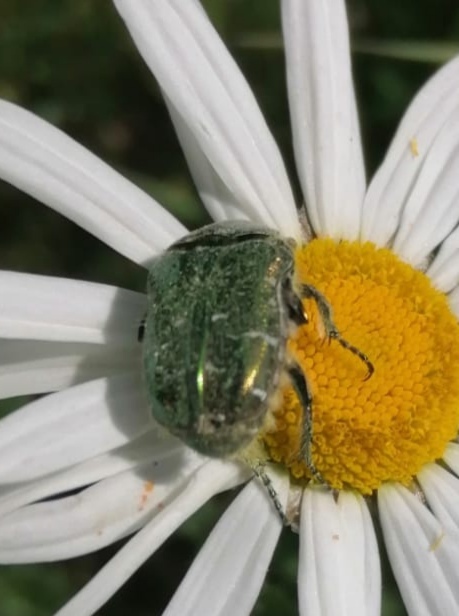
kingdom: Animalia
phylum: Arthropoda
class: Insecta
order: Coleoptera
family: Scarabaeidae
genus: Cetonia
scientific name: Cetonia aurata
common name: Rose chafer
